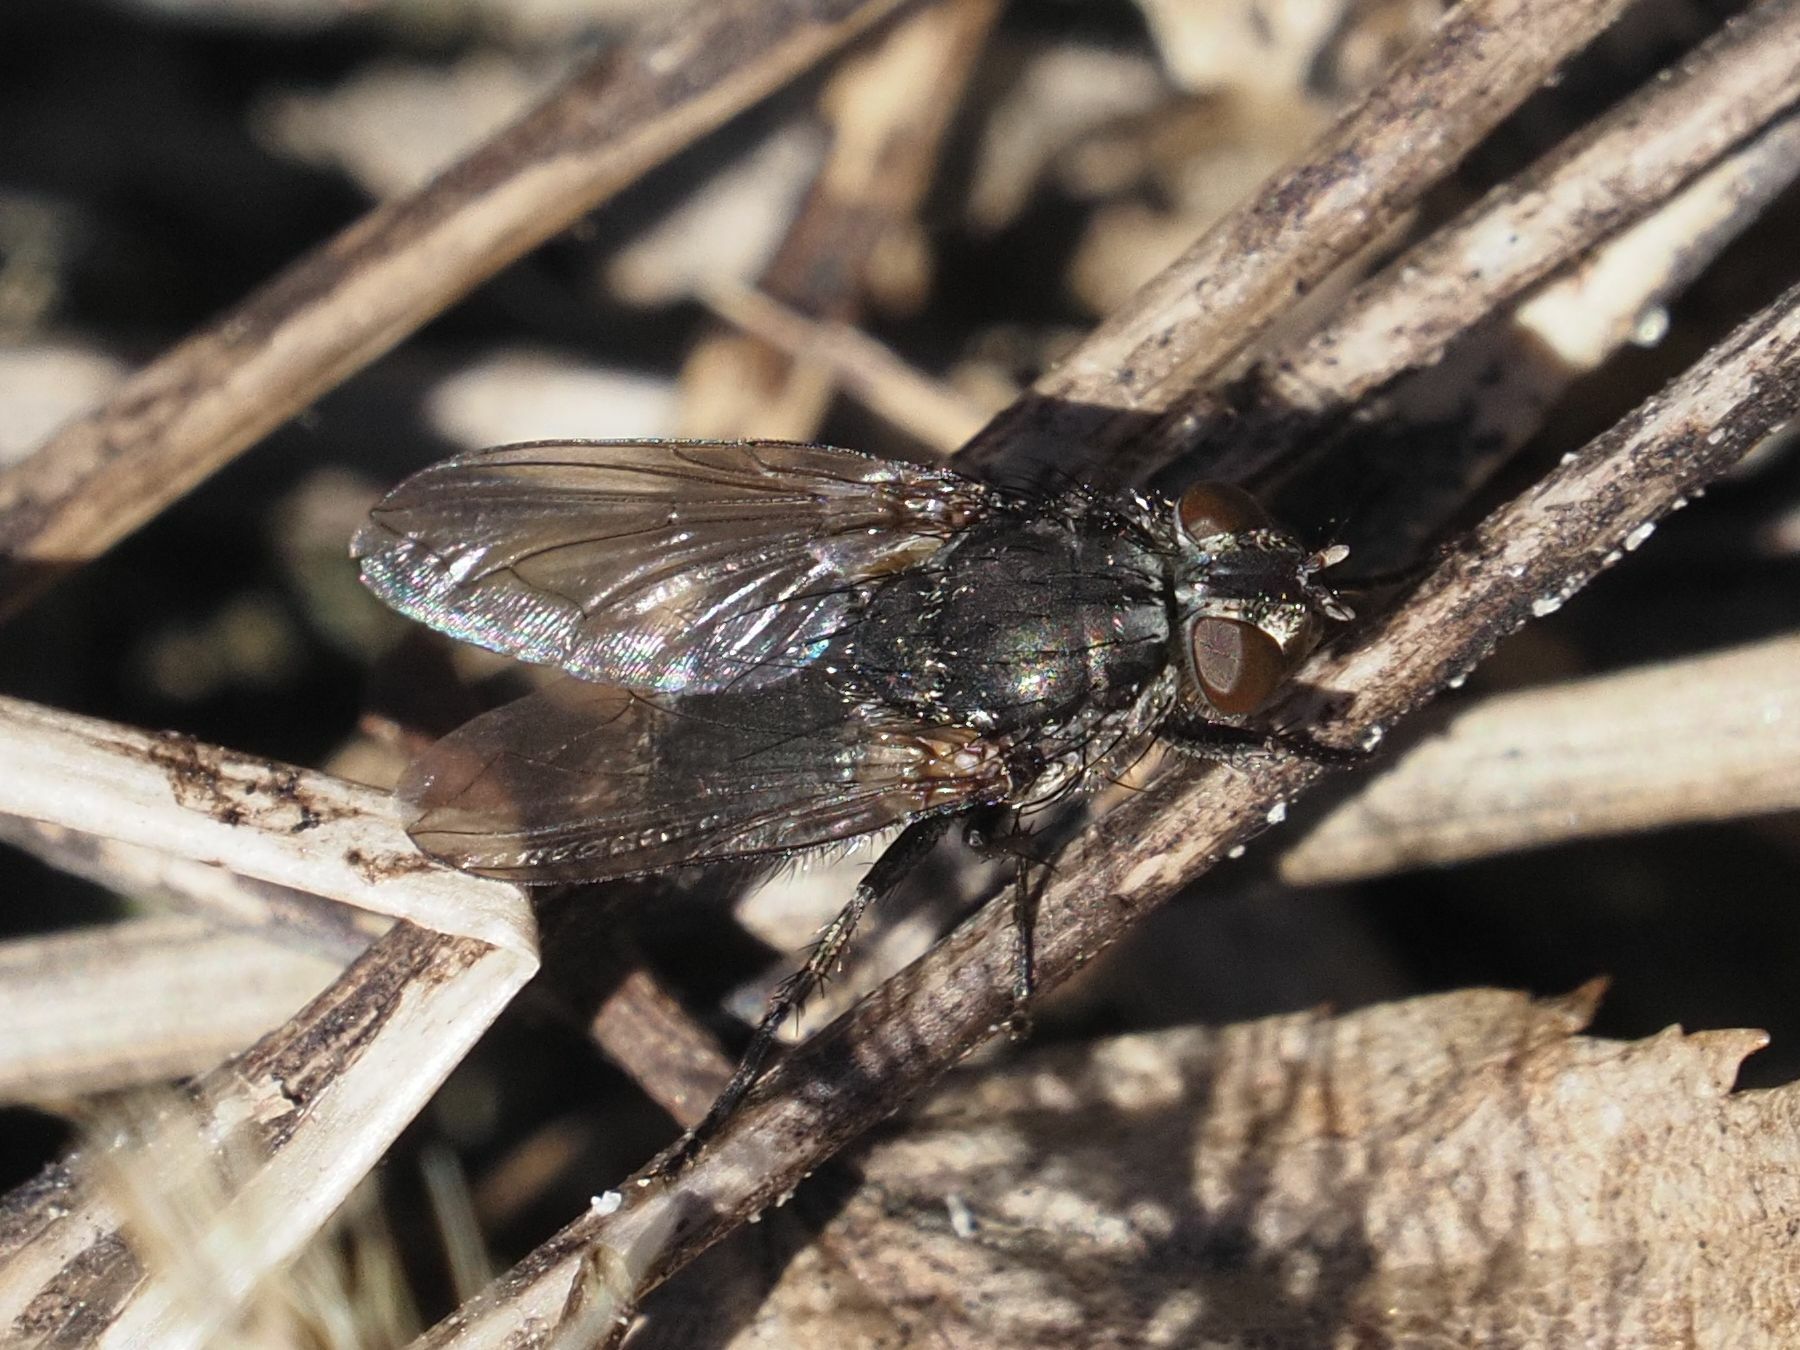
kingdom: Animalia
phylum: Arthropoda
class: Insecta
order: Diptera
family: Polleniidae
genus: Pollenia
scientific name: Pollenia vagabunda
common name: Vagabund cluster fly
